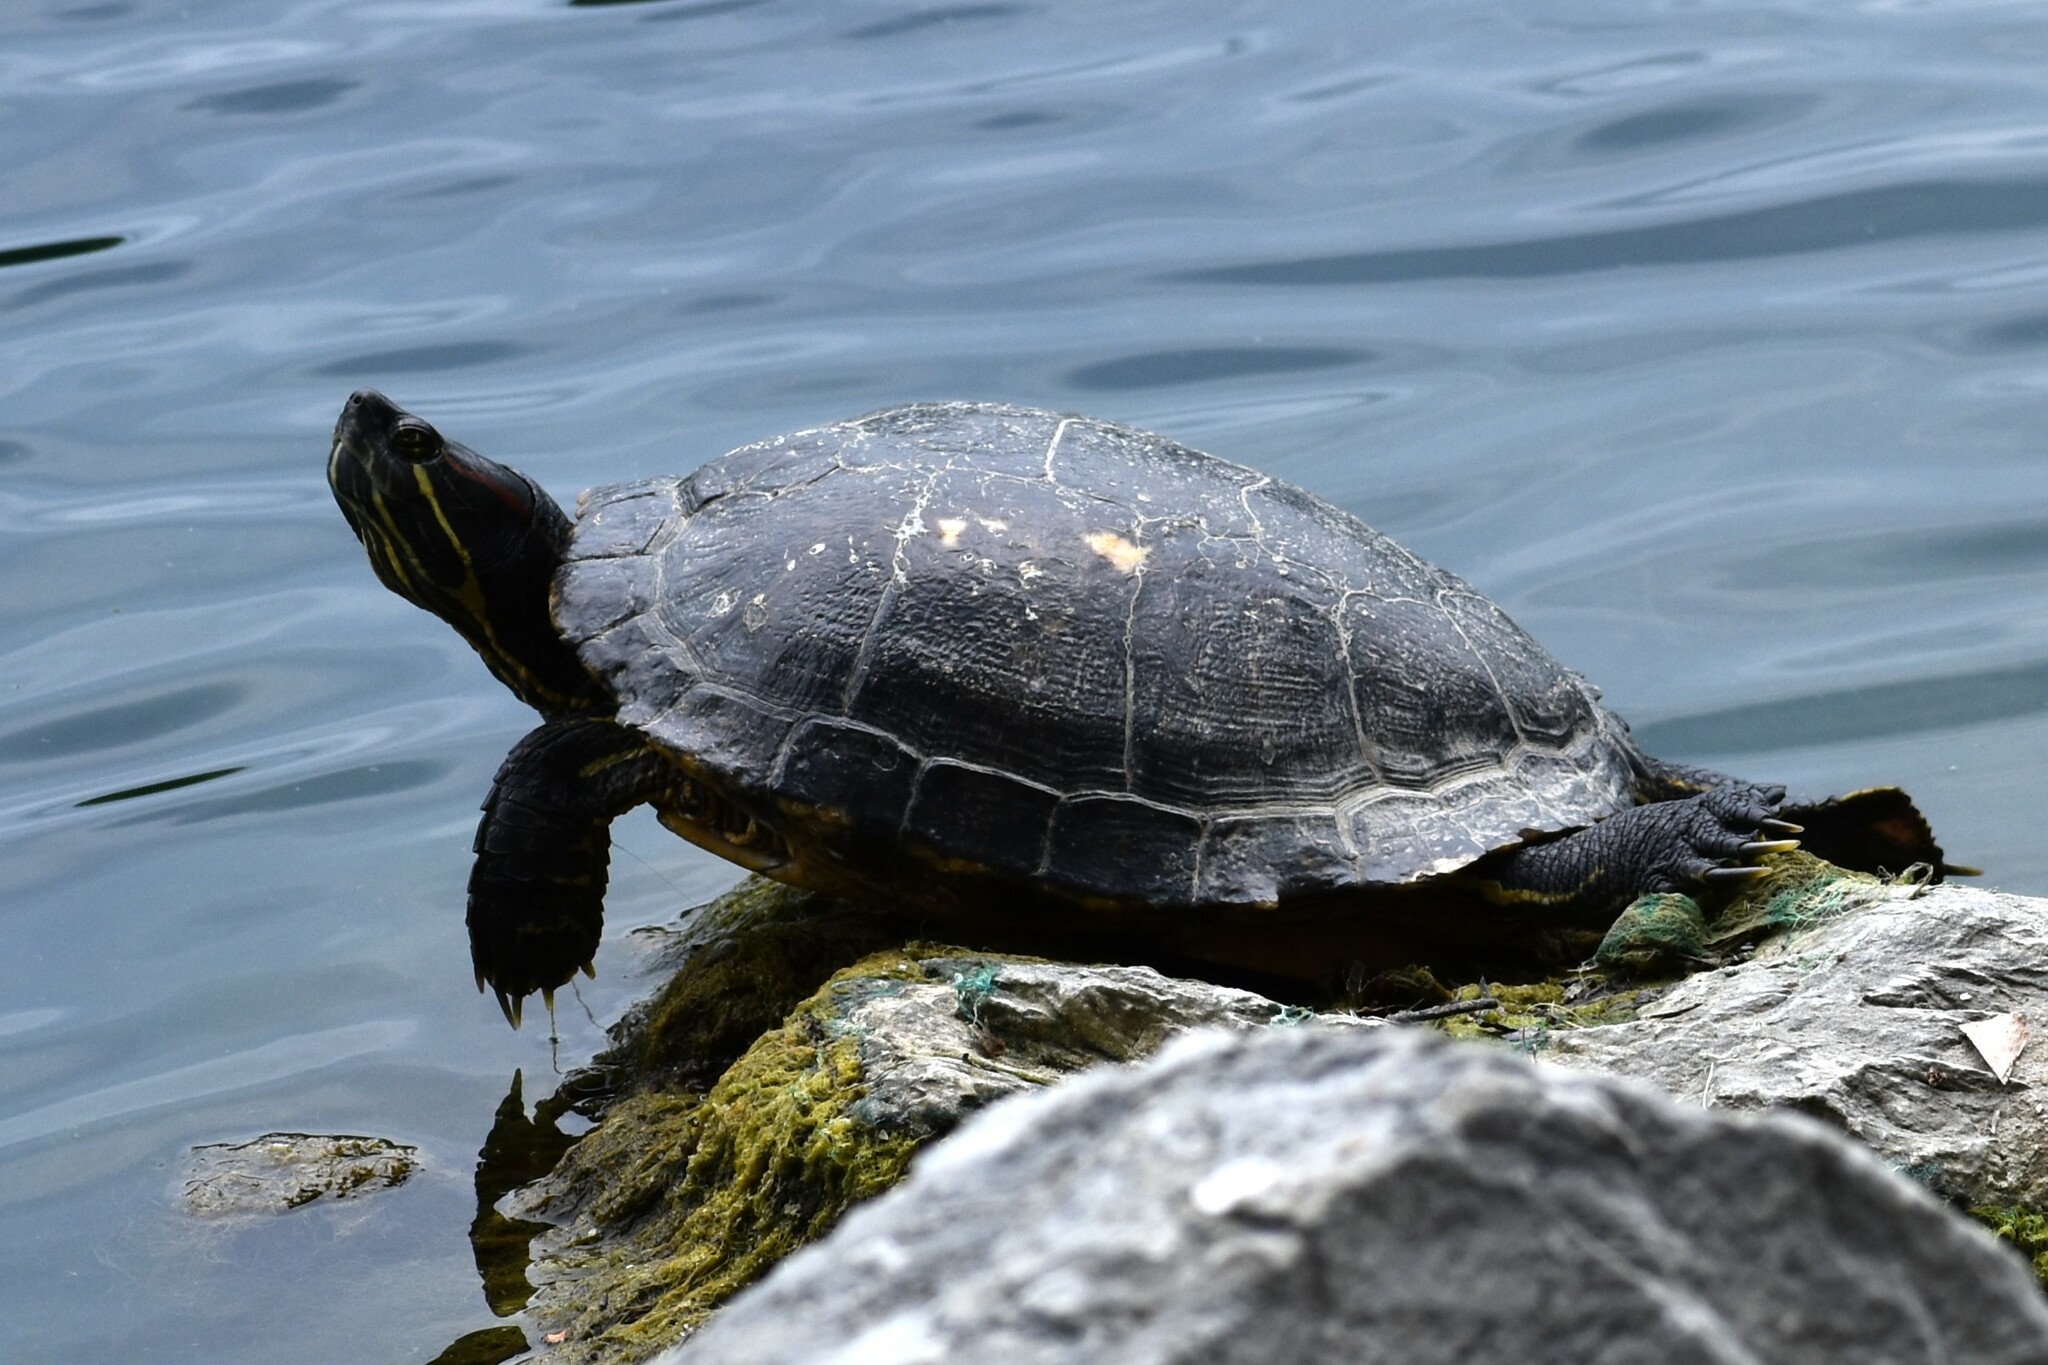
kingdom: Animalia
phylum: Chordata
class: Testudines
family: Emydidae
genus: Trachemys
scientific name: Trachemys scripta
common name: Slider
